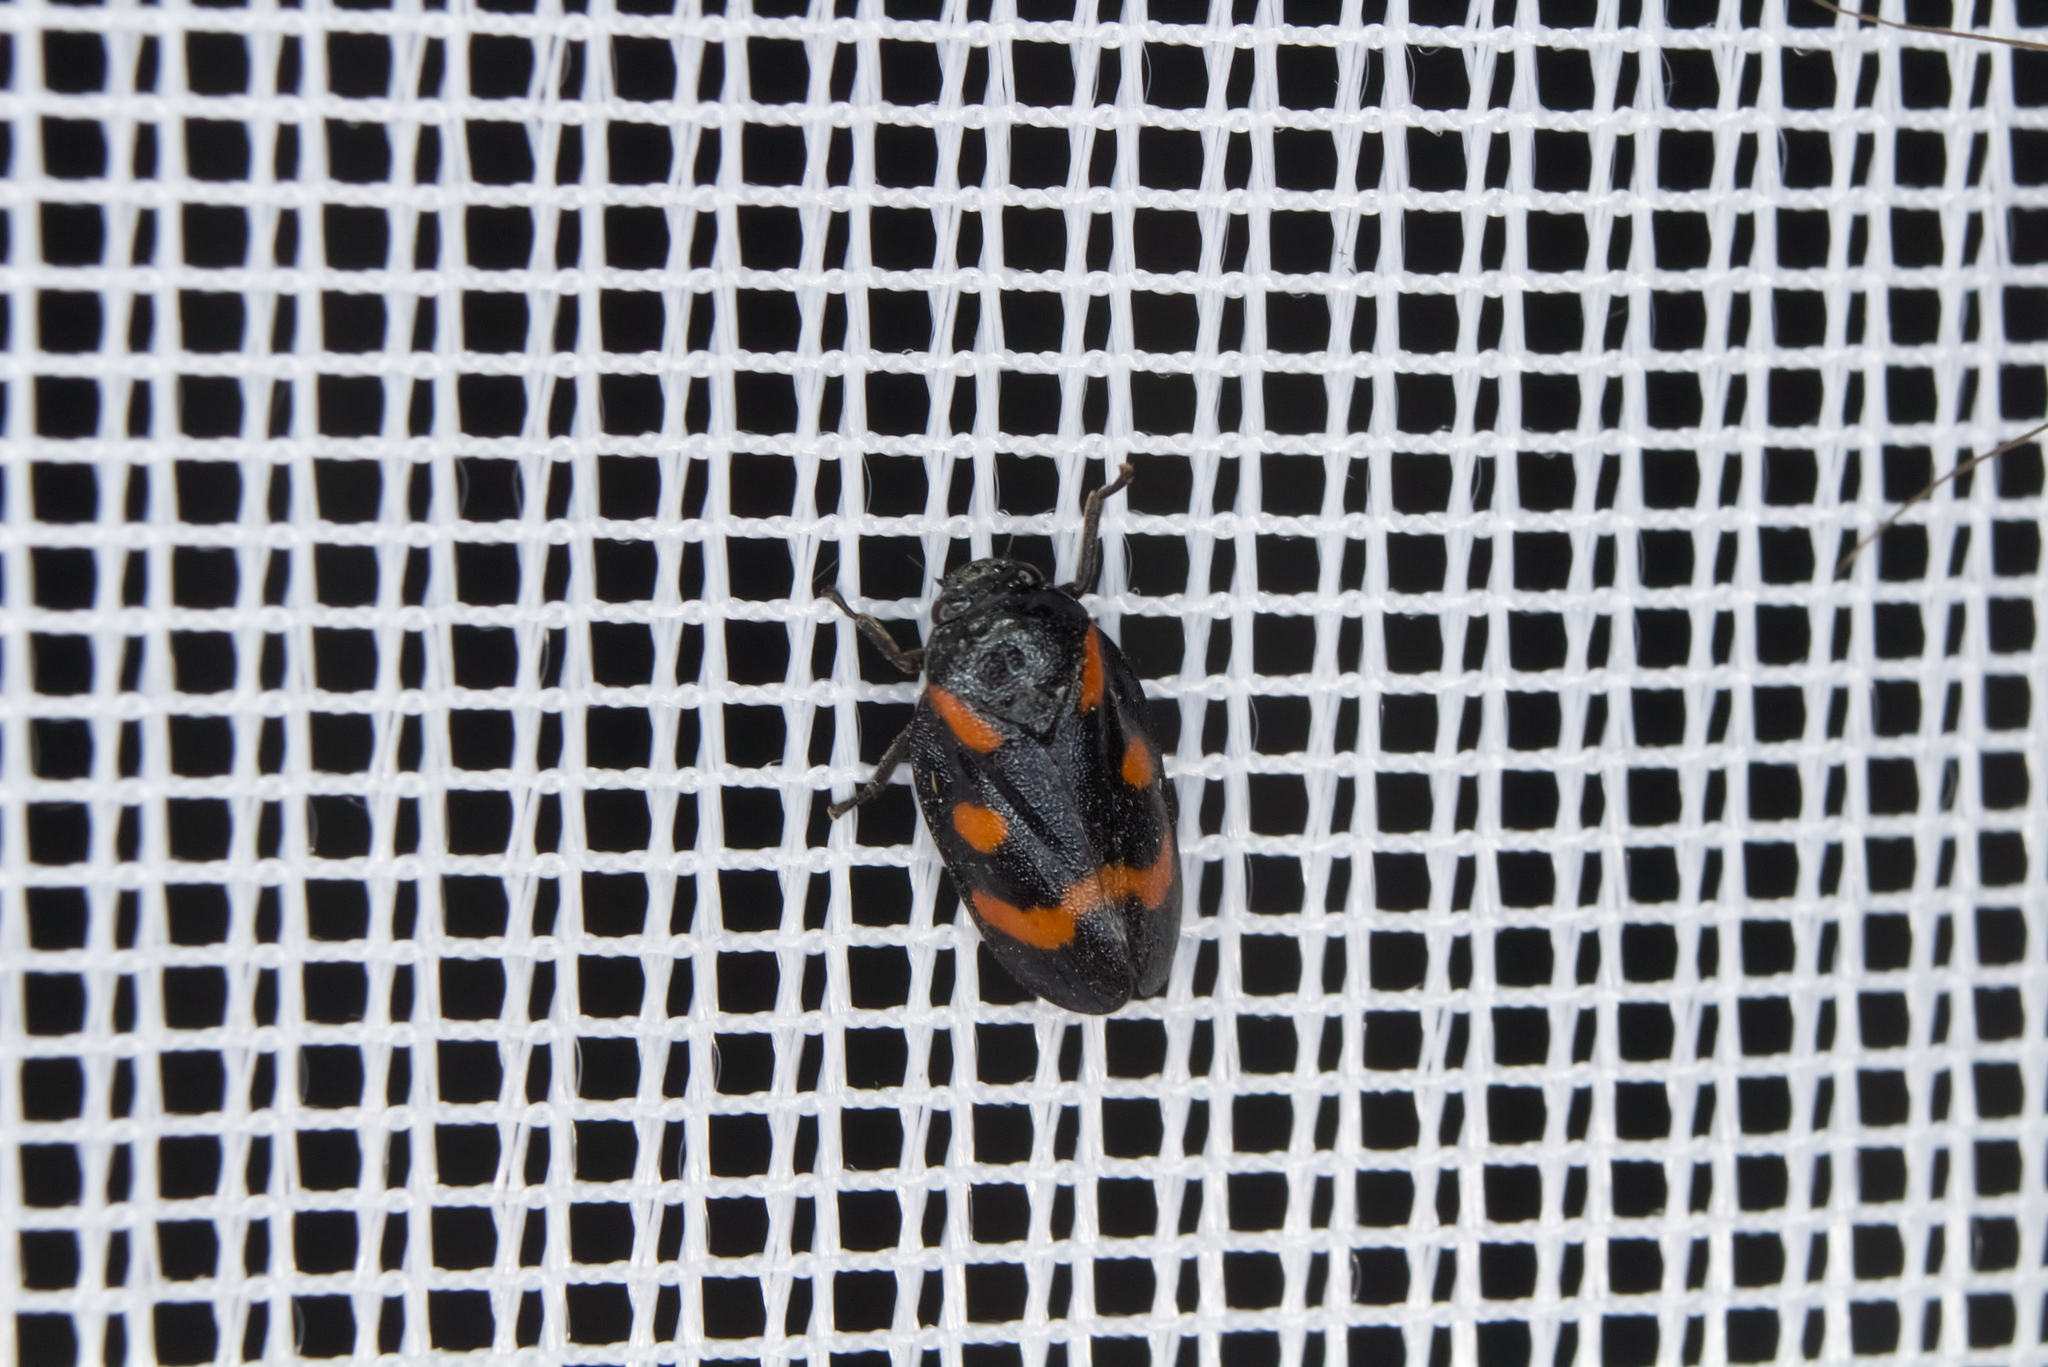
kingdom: Animalia
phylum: Arthropoda
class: Insecta
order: Hemiptera
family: Cercopidae
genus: Cercopis
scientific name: Cercopis sanguinolenta
